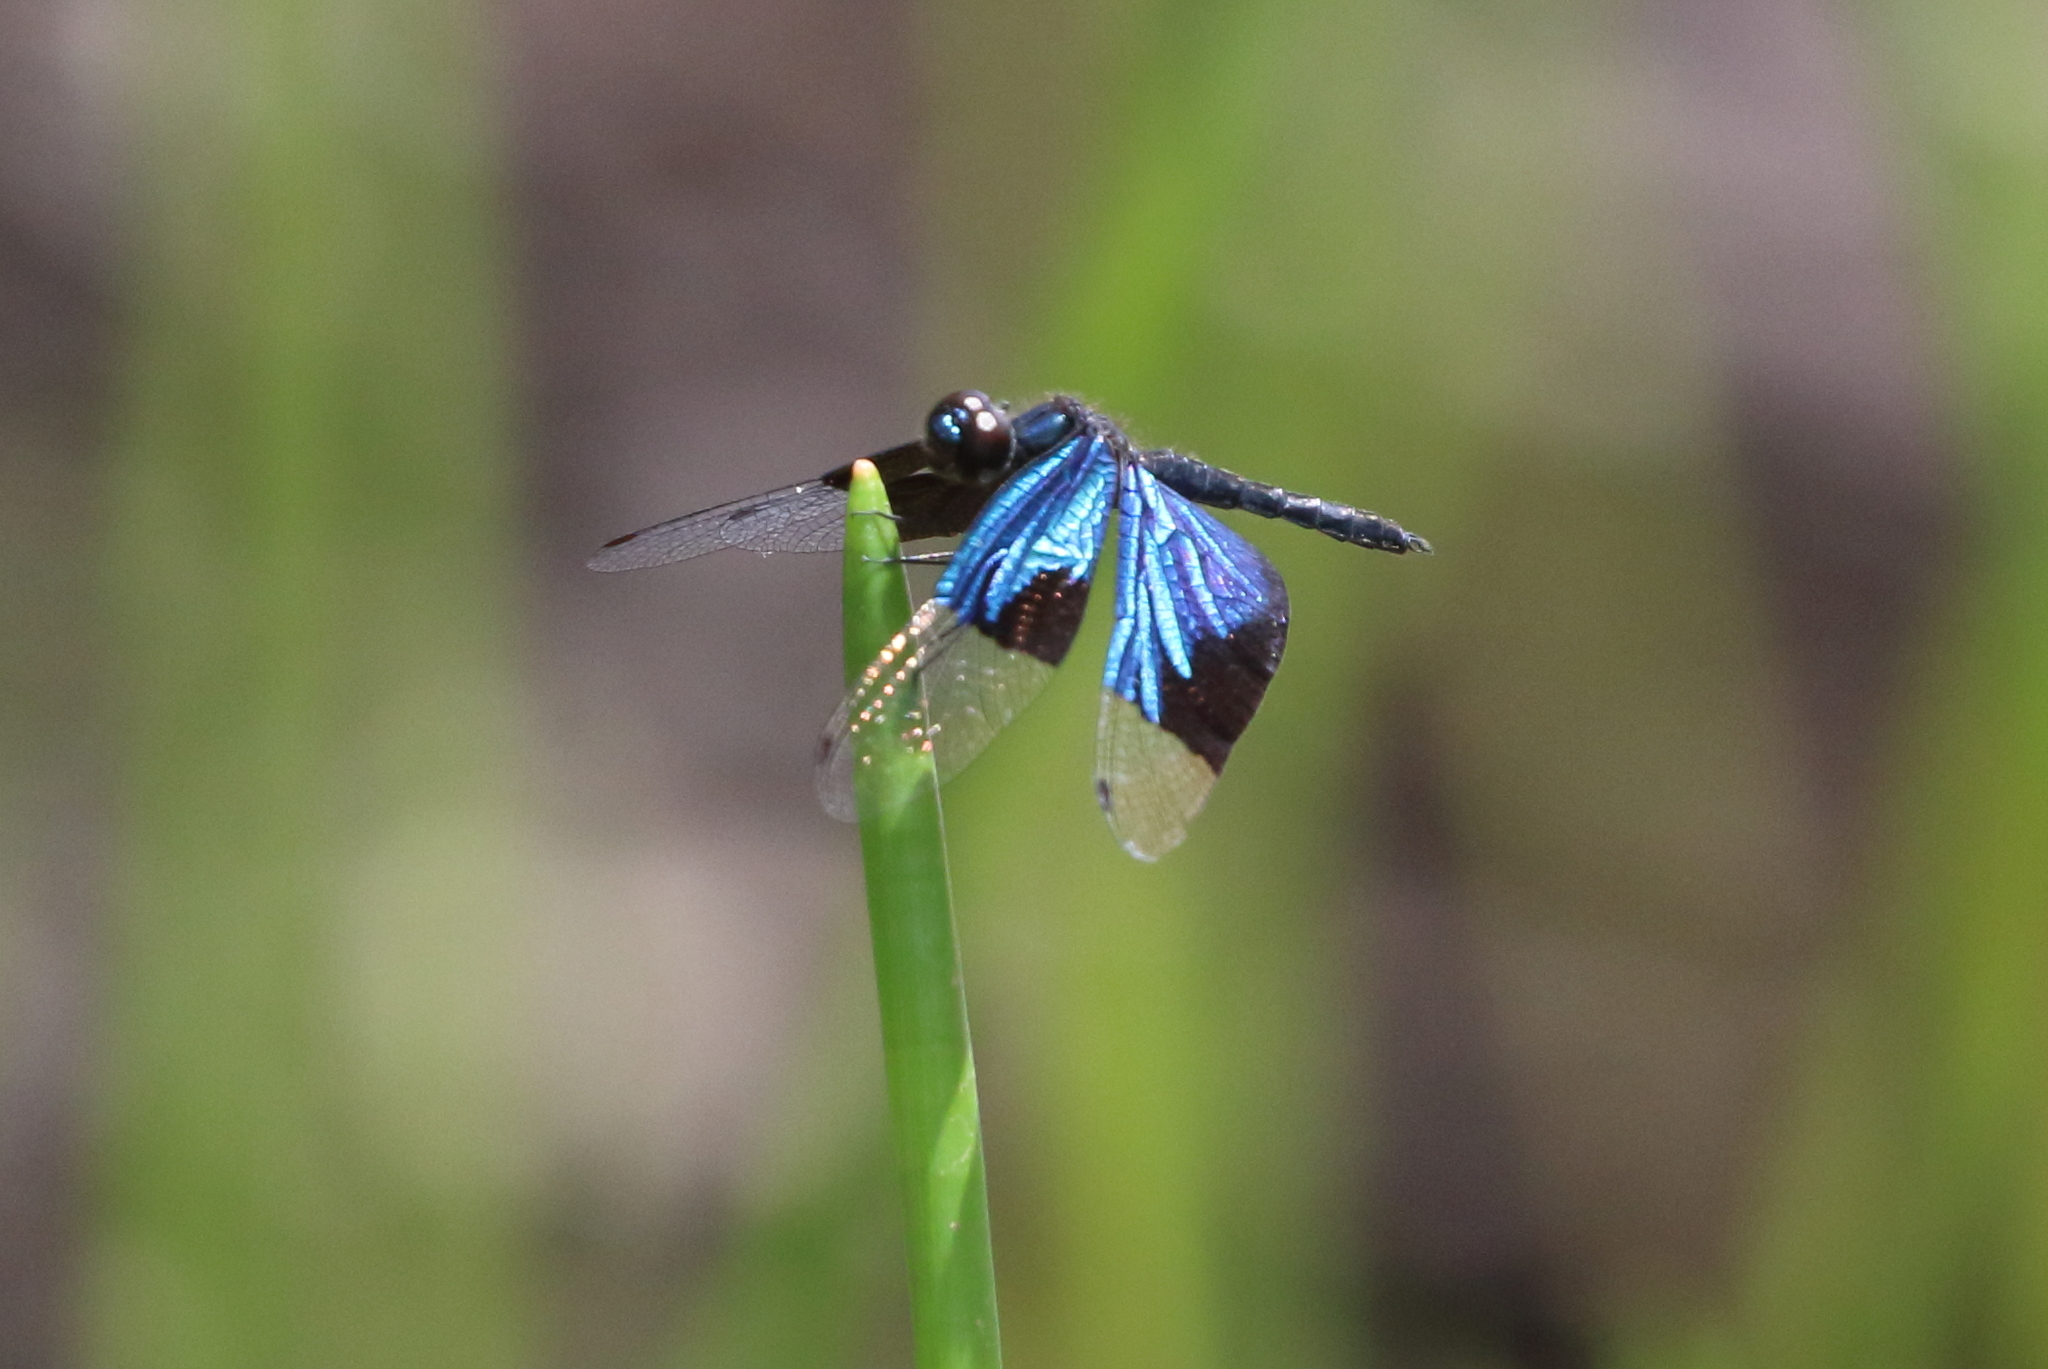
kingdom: Animalia
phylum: Arthropoda
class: Insecta
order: Odonata
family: Libellulidae
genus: Rhyothemis
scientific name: Rhyothemis resplendens
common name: Jewel flutterer
